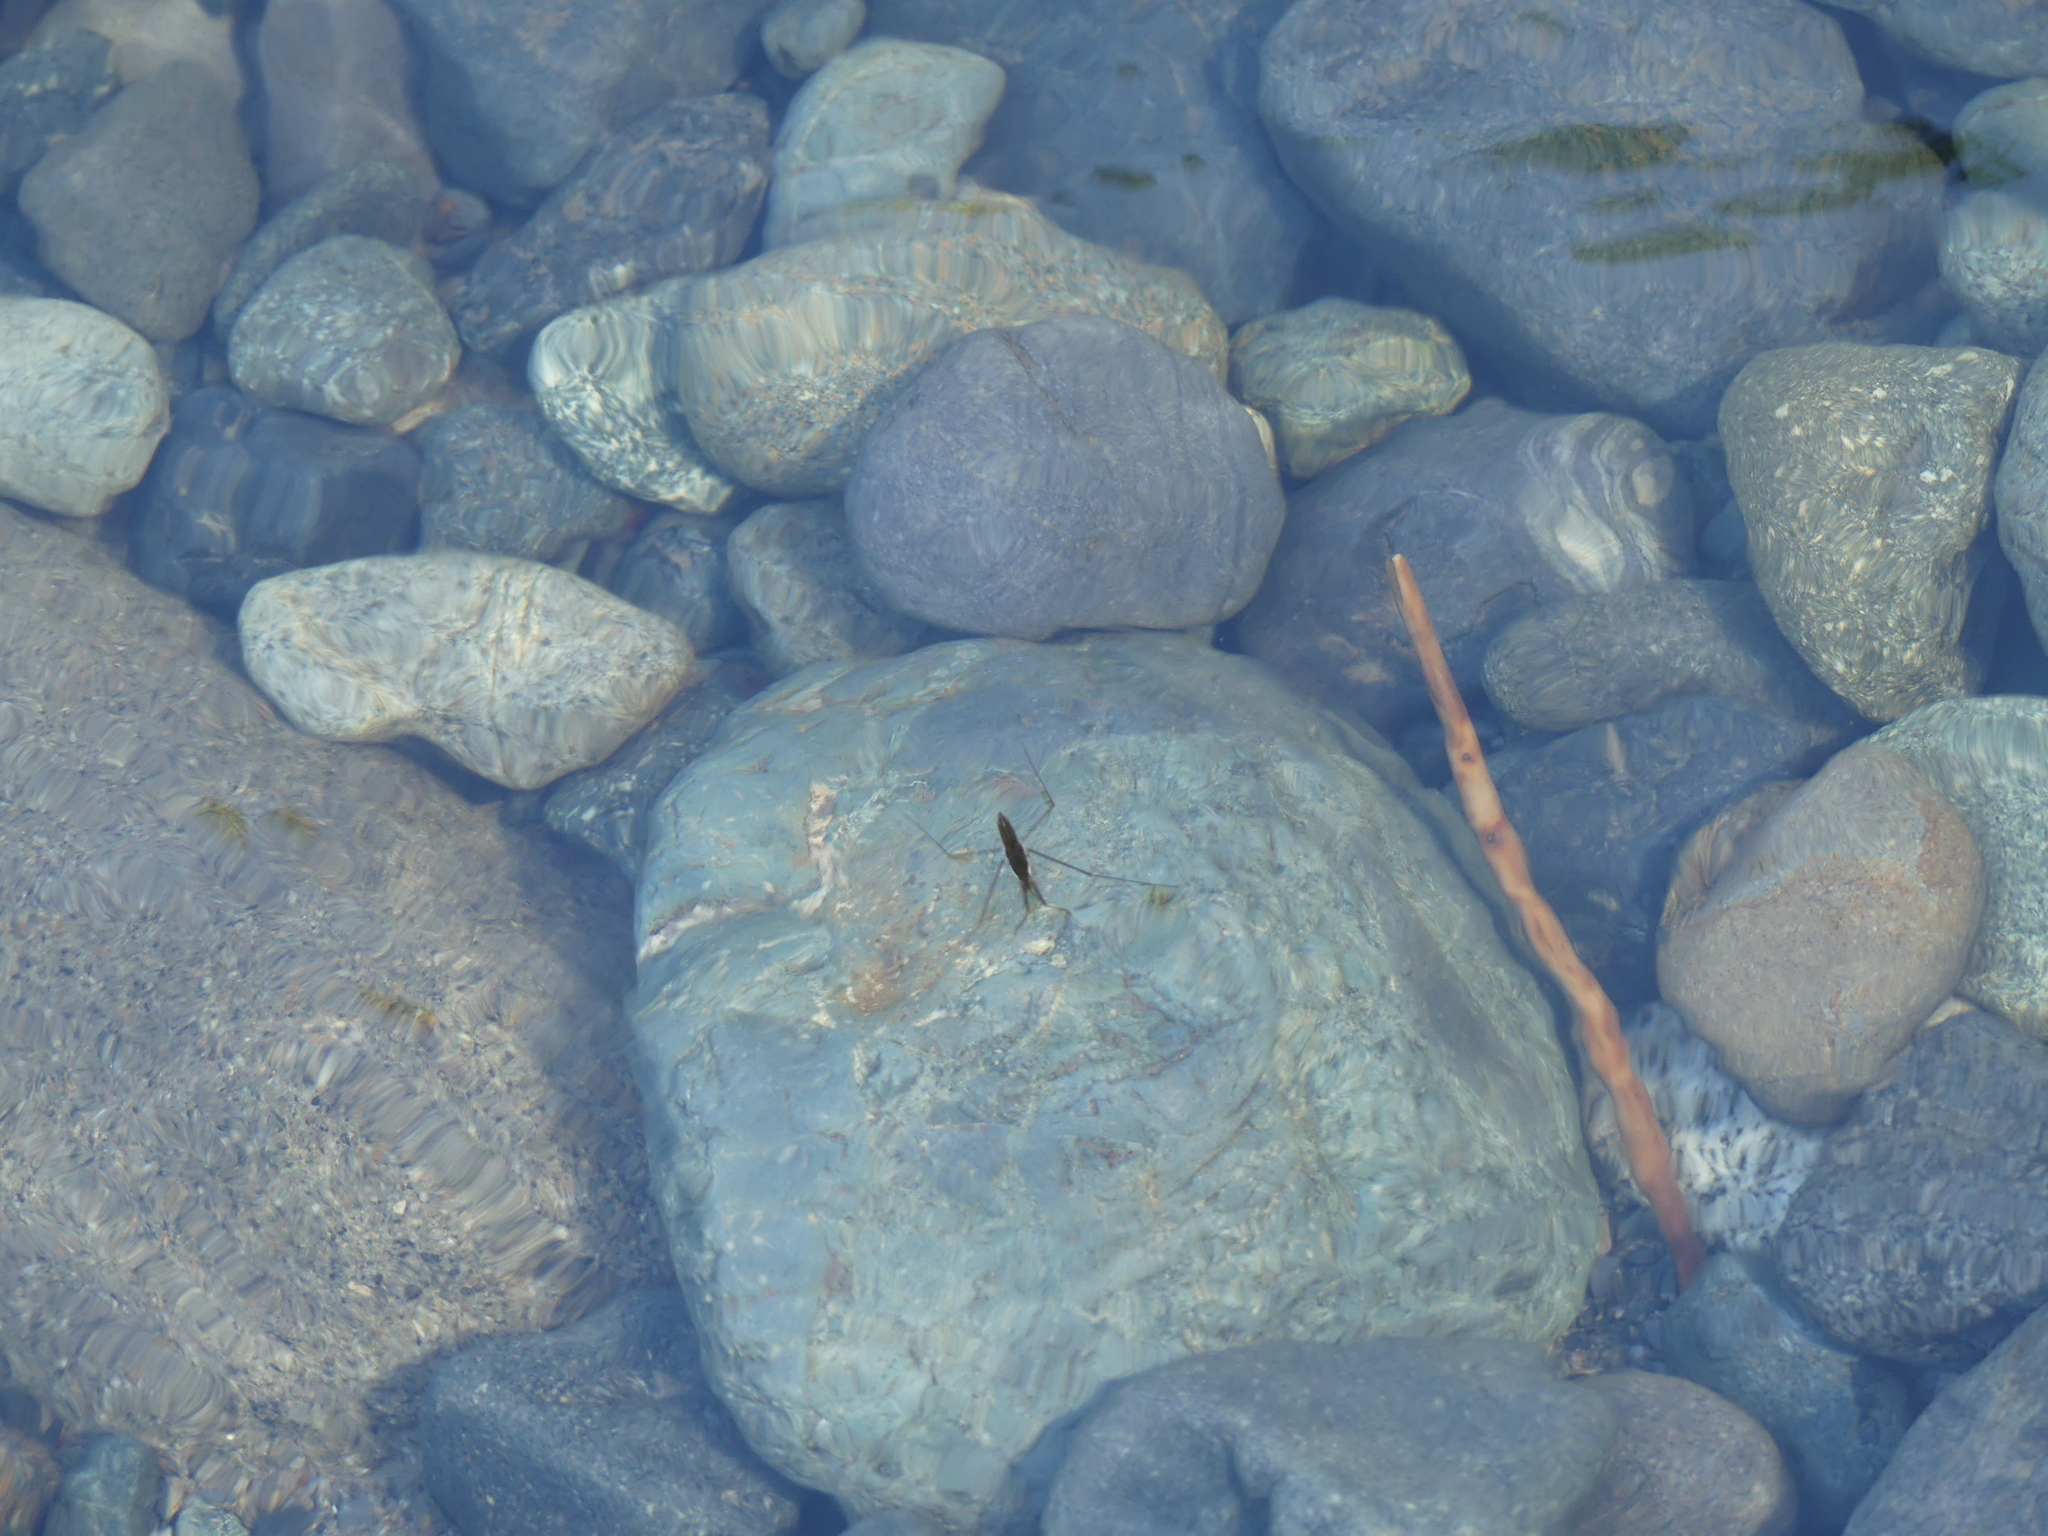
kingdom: Animalia
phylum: Arthropoda
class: Insecta
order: Hemiptera
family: Gerridae
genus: Aquarius
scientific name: Aquarius remigis
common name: Common water strider
